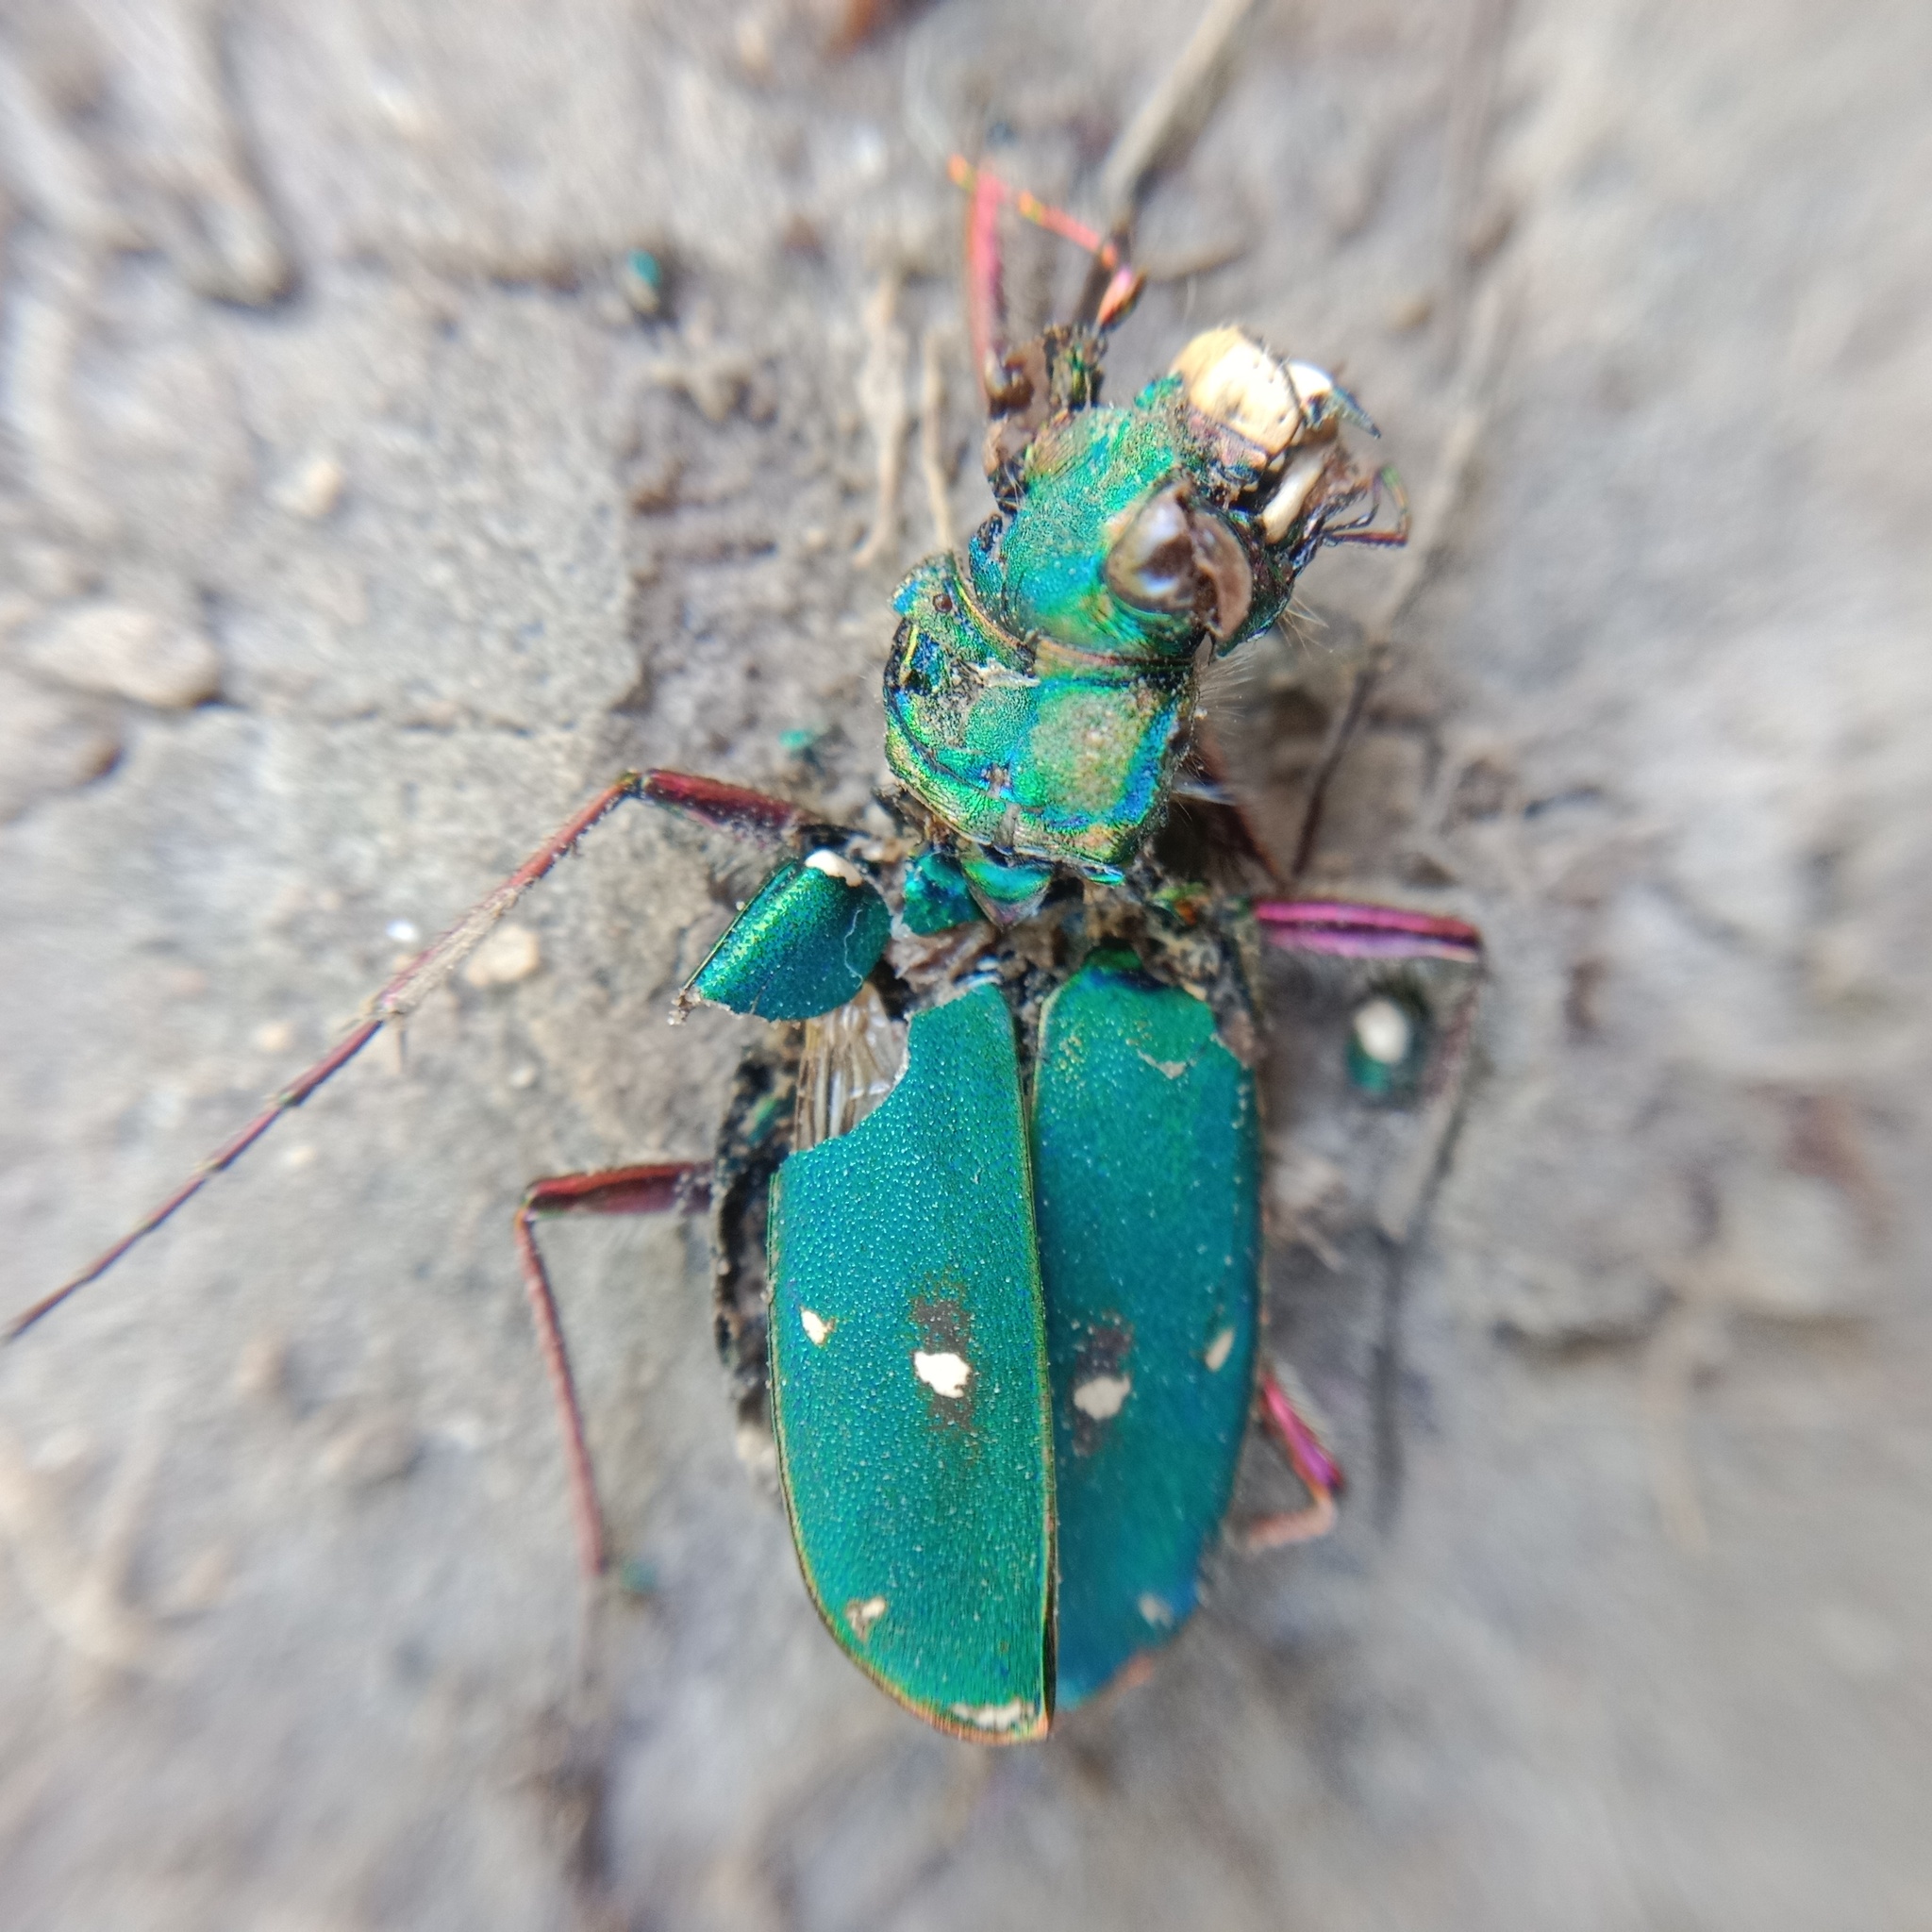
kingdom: Animalia
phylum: Arthropoda
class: Insecta
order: Coleoptera
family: Carabidae
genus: Cicindela
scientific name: Cicindela campestris
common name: Common tiger beetle
